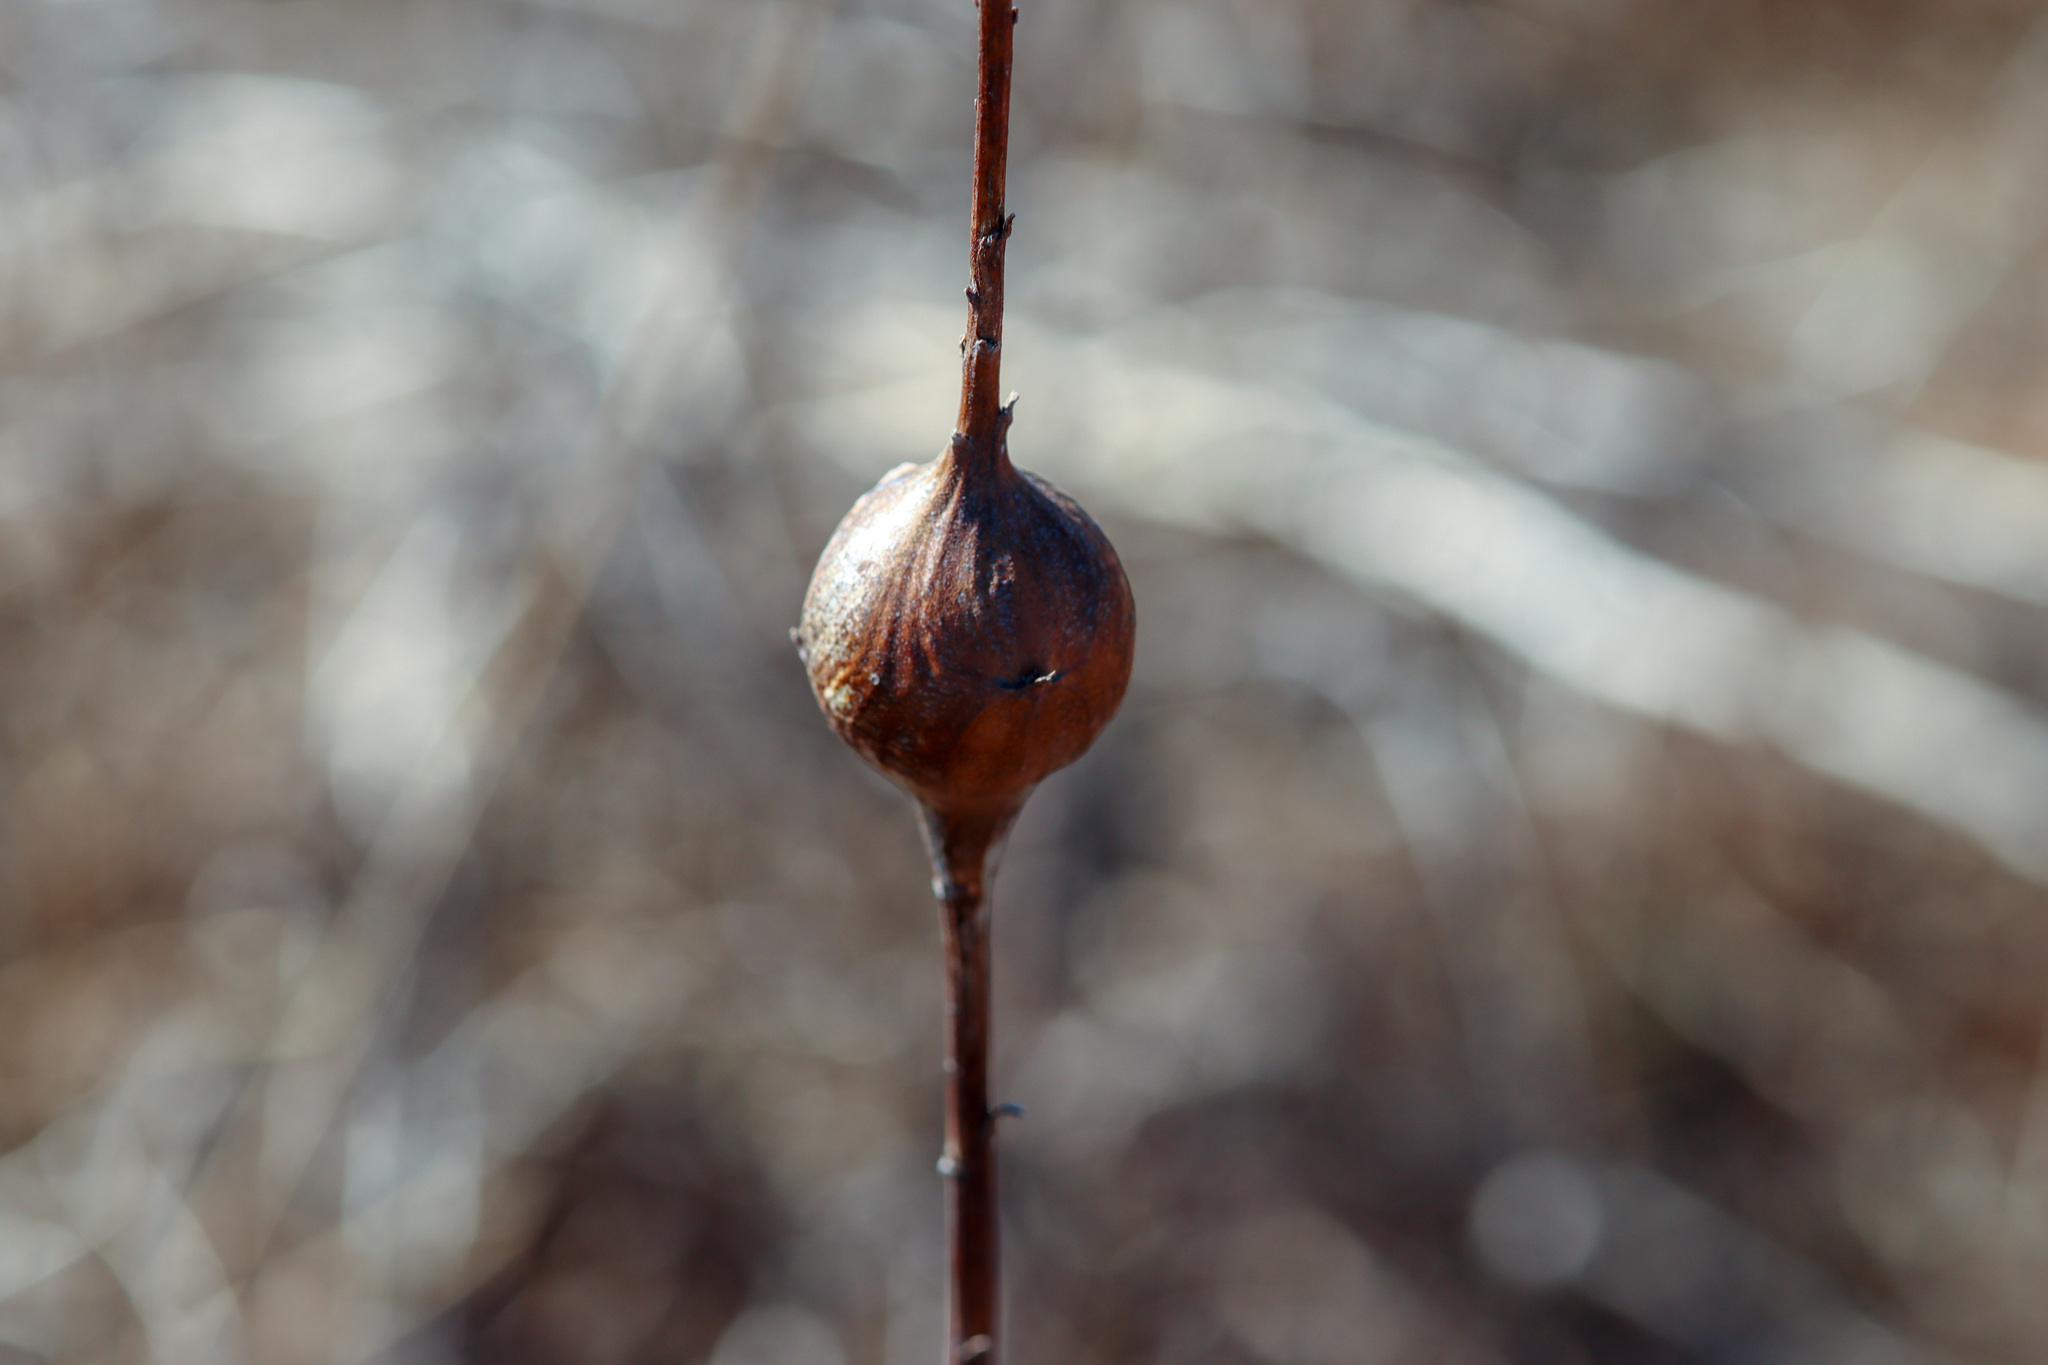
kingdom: Animalia
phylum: Arthropoda
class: Insecta
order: Diptera
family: Tephritidae
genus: Eurosta
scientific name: Eurosta solidaginis
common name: Goldenrod gall fly
